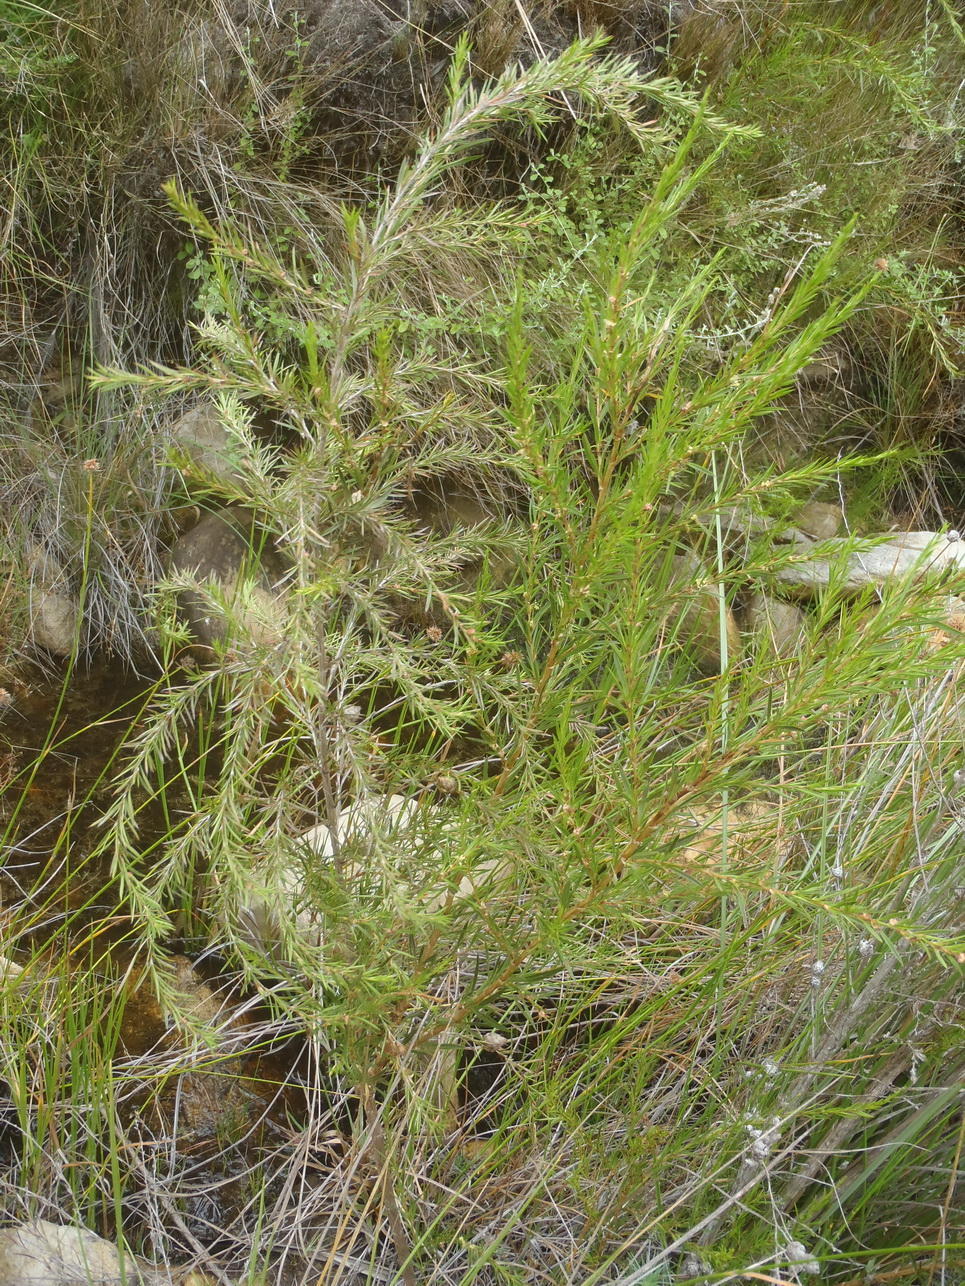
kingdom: Plantae
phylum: Tracheophyta
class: Magnoliopsida
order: Rosales
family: Rosaceae
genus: Cliffortia
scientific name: Cliffortia strobilifera
